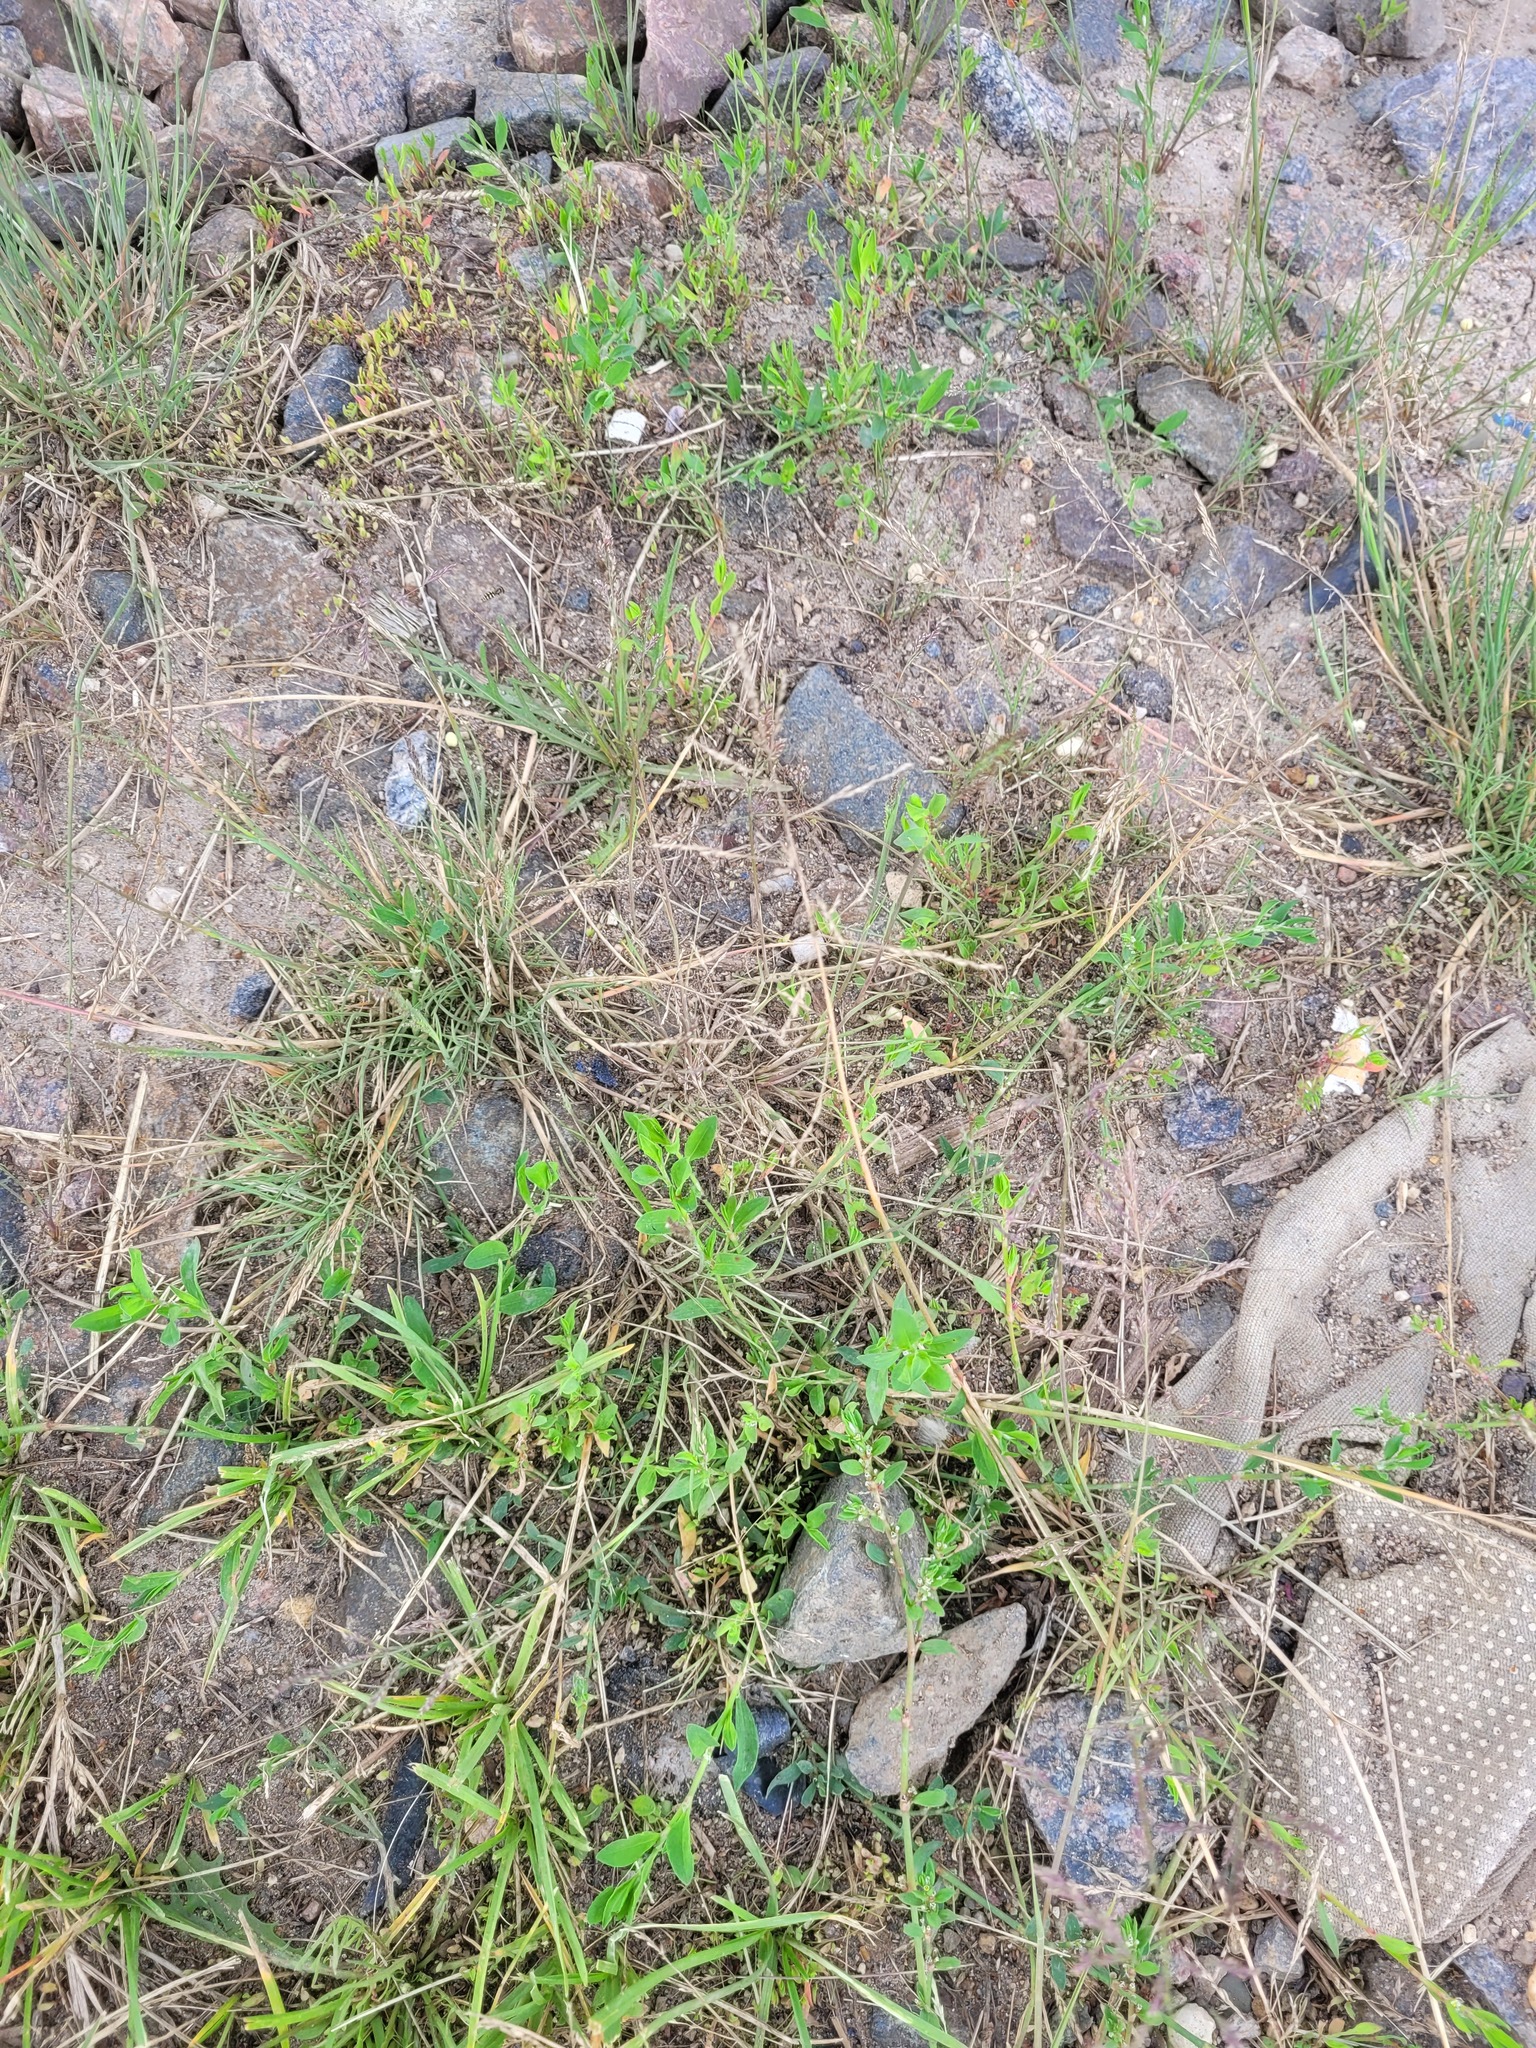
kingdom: Plantae
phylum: Tracheophyta
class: Liliopsida
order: Poales
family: Poaceae
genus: Puccinellia
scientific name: Puccinellia distans
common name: Weeping alkaligrass
